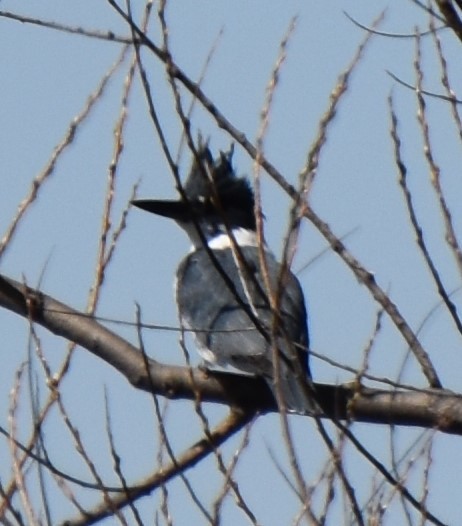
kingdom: Animalia
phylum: Chordata
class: Aves
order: Coraciiformes
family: Alcedinidae
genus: Megaceryle
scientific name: Megaceryle alcyon
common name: Belted kingfisher
